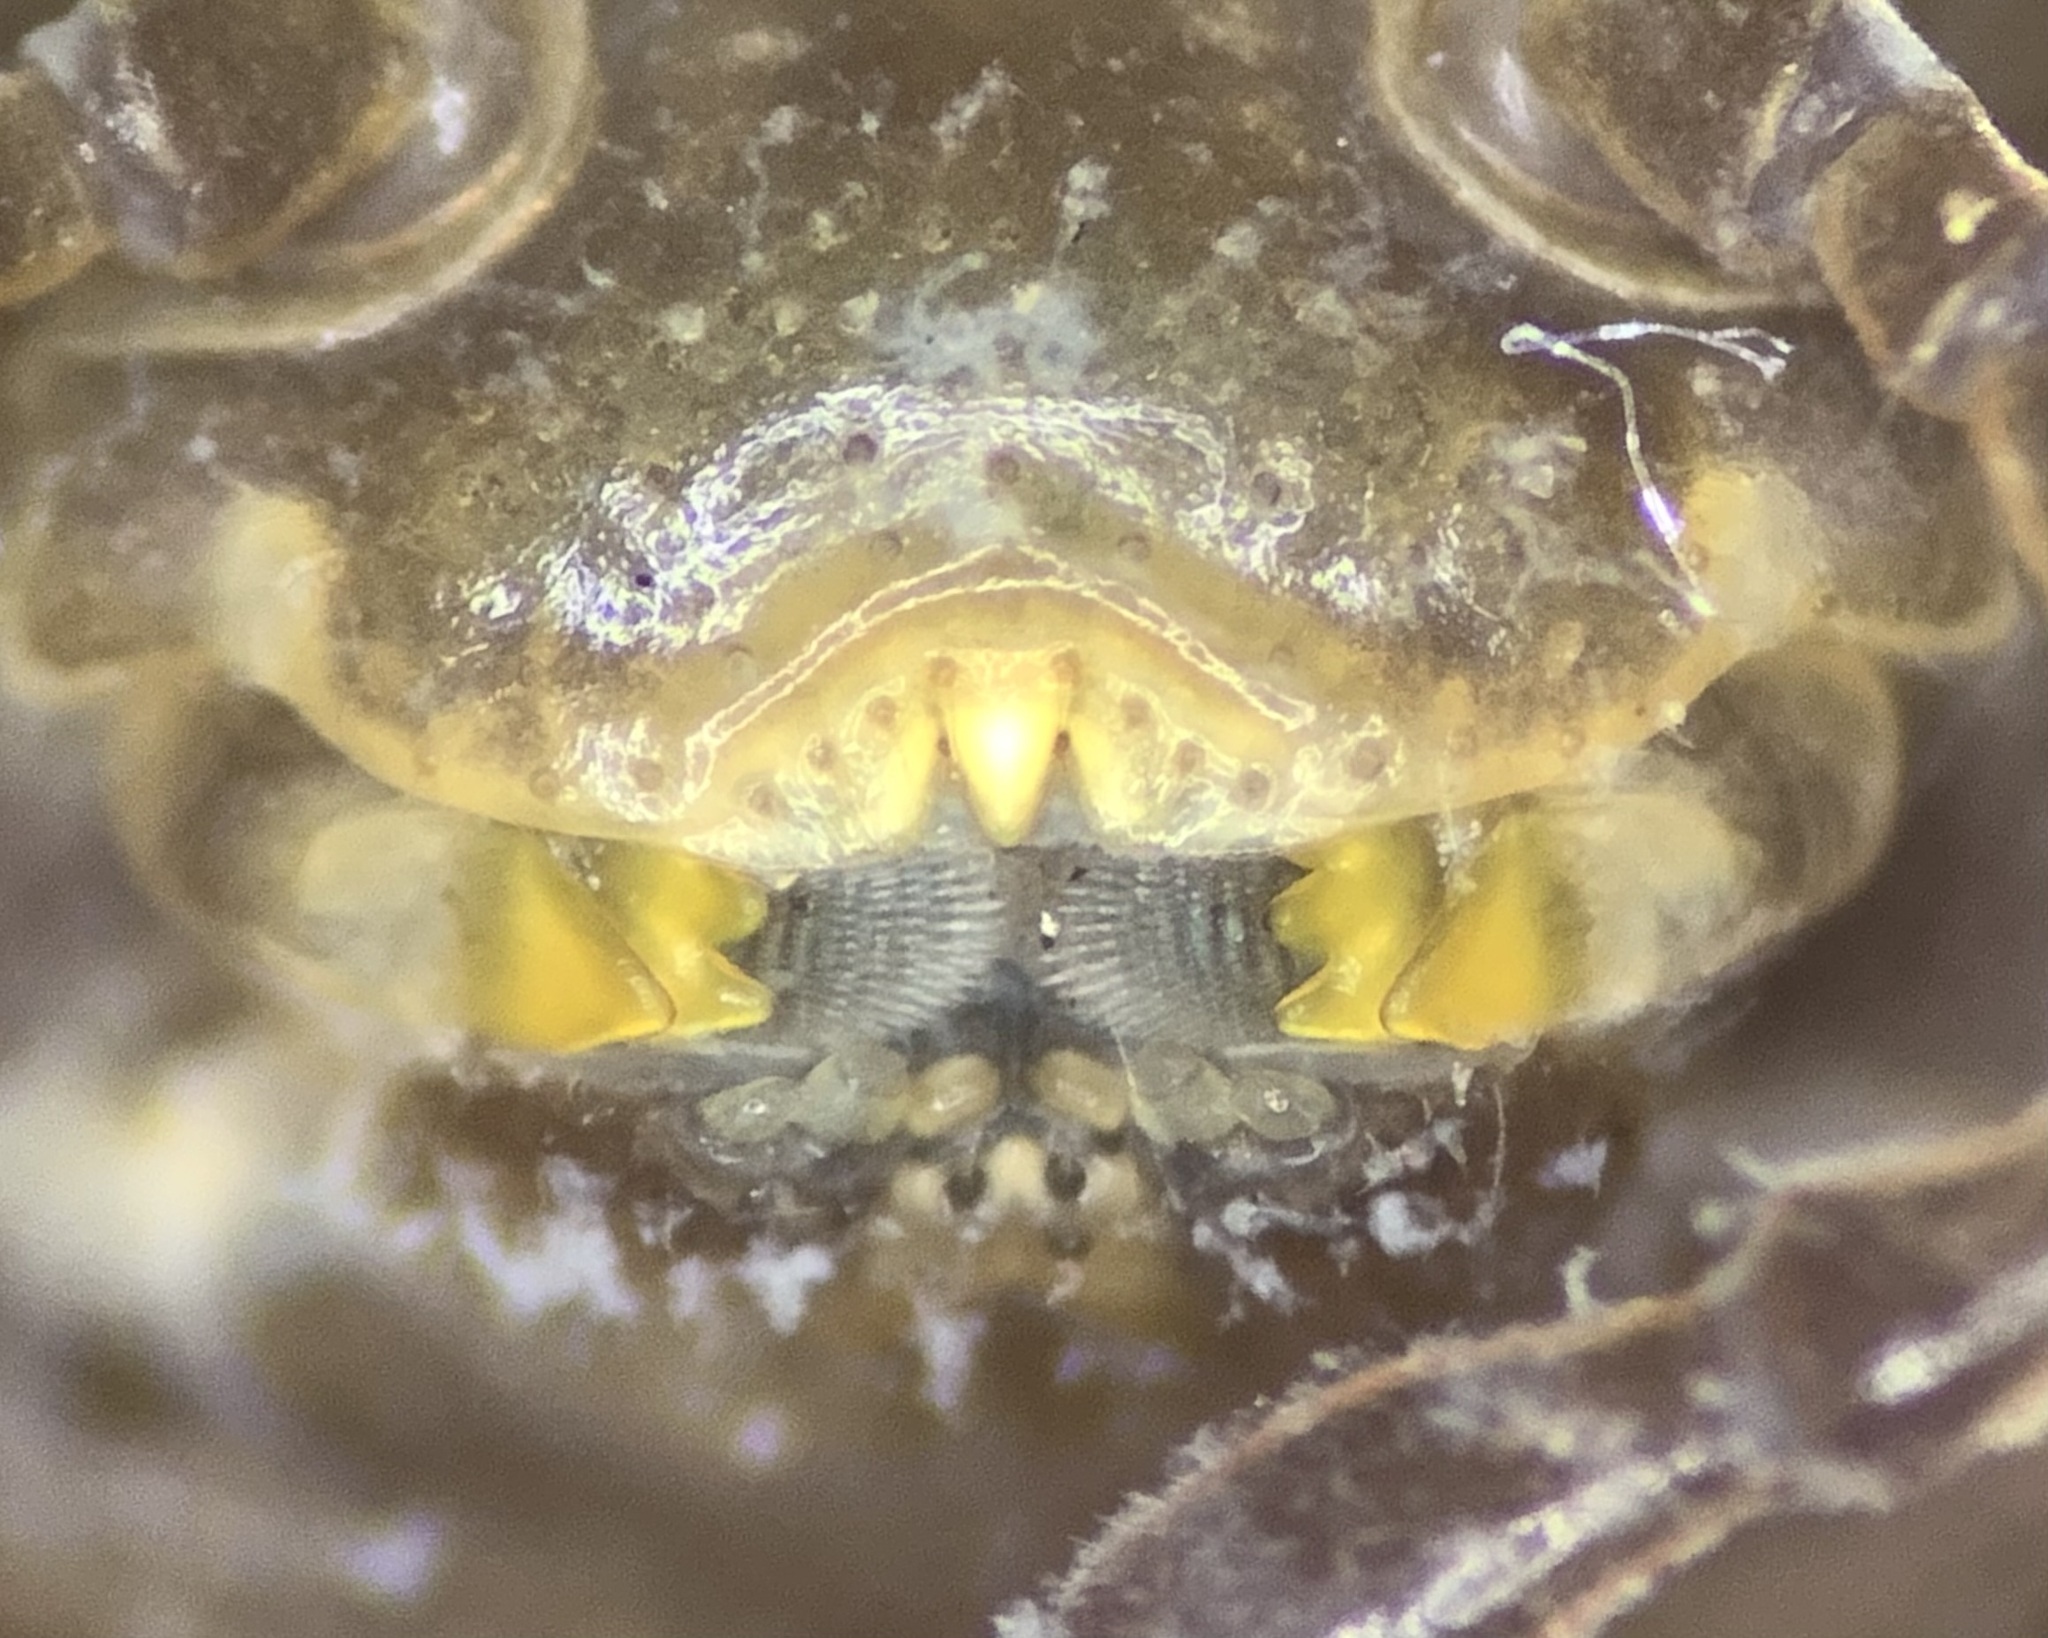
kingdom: Animalia
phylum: Arthropoda
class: Diplopoda
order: Glomerida
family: Glomeridae
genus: Glomeris
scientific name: Glomeris marginata
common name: Bordered pill millipede
